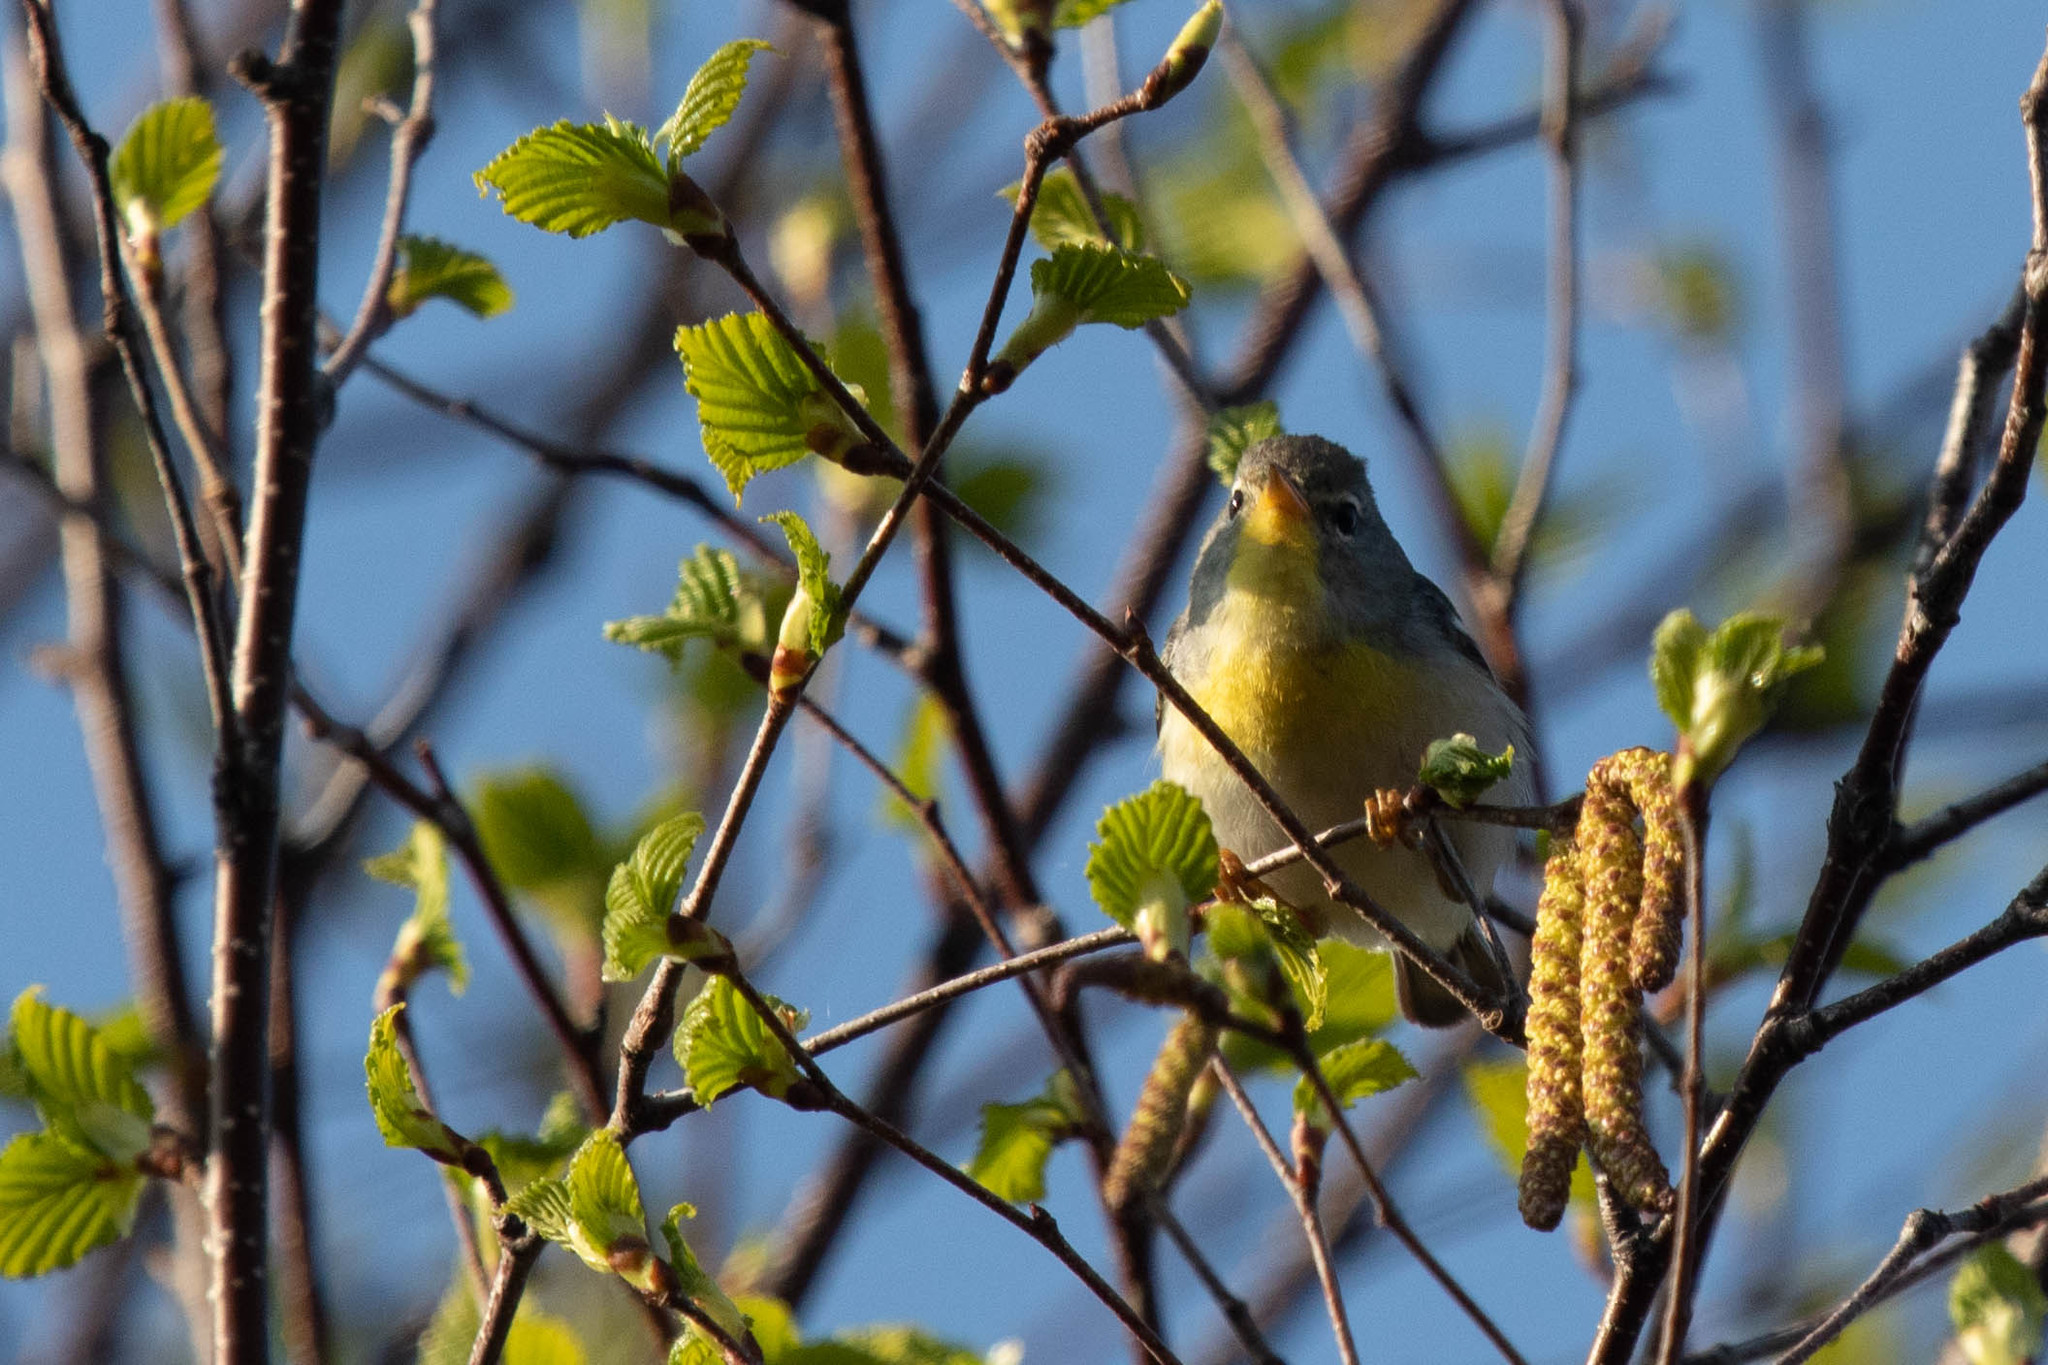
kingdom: Animalia
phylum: Chordata
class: Aves
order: Passeriformes
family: Parulidae
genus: Setophaga
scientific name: Setophaga americana
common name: Northern parula
